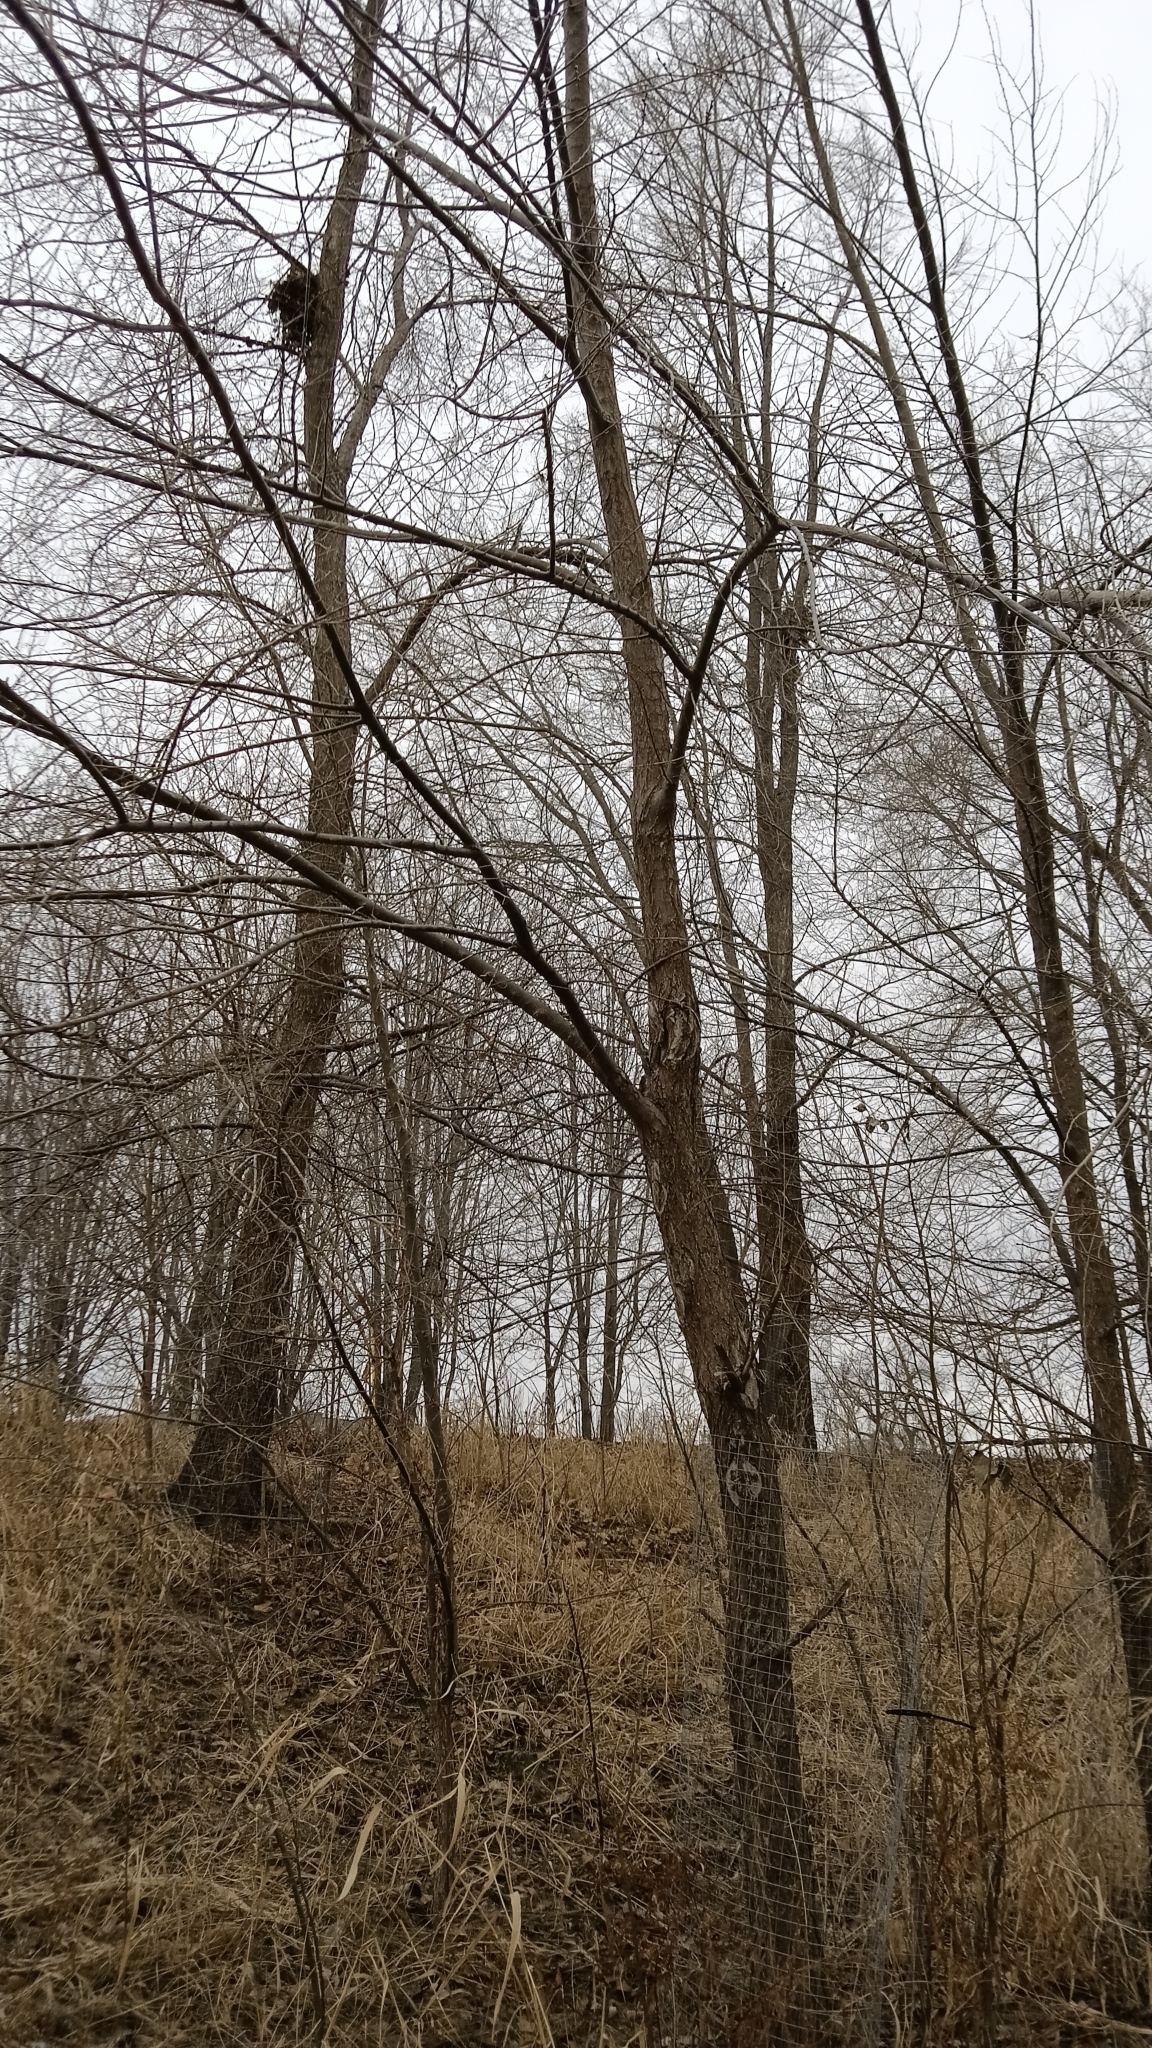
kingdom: Plantae
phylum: Tracheophyta
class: Magnoliopsida
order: Rosales
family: Ulmaceae
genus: Ulmus
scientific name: Ulmus pumila
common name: Siberian elm
